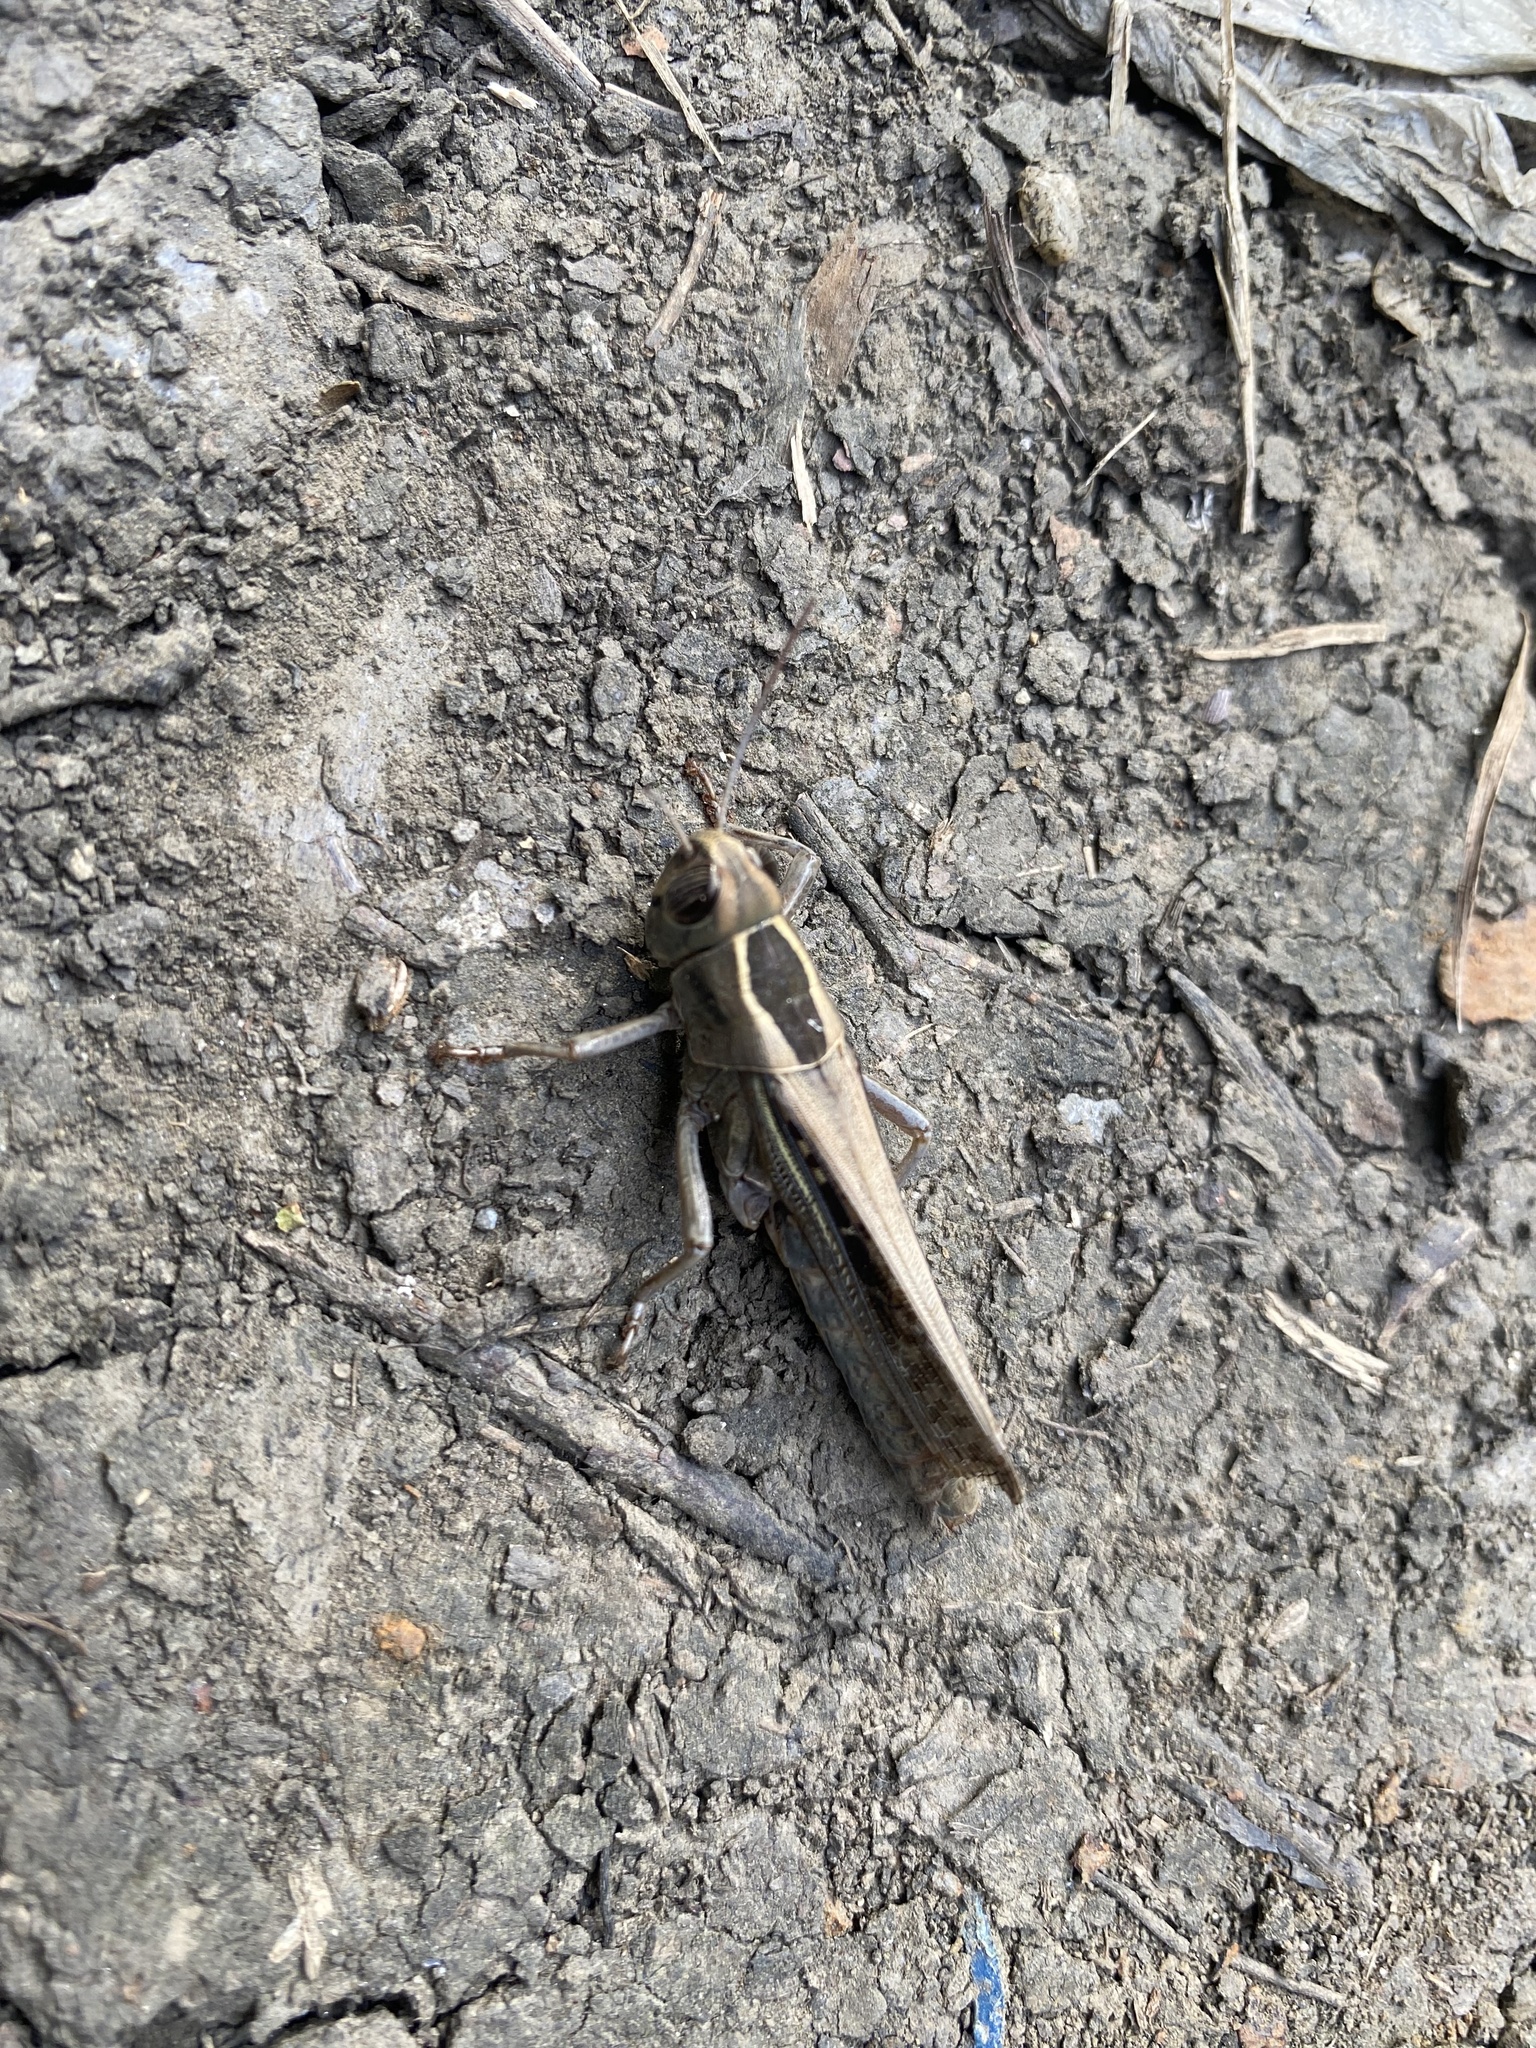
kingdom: Animalia
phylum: Arthropoda
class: Insecta
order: Orthoptera
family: Acrididae
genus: Eyprepocnemis
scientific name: Eyprepocnemis plorans
